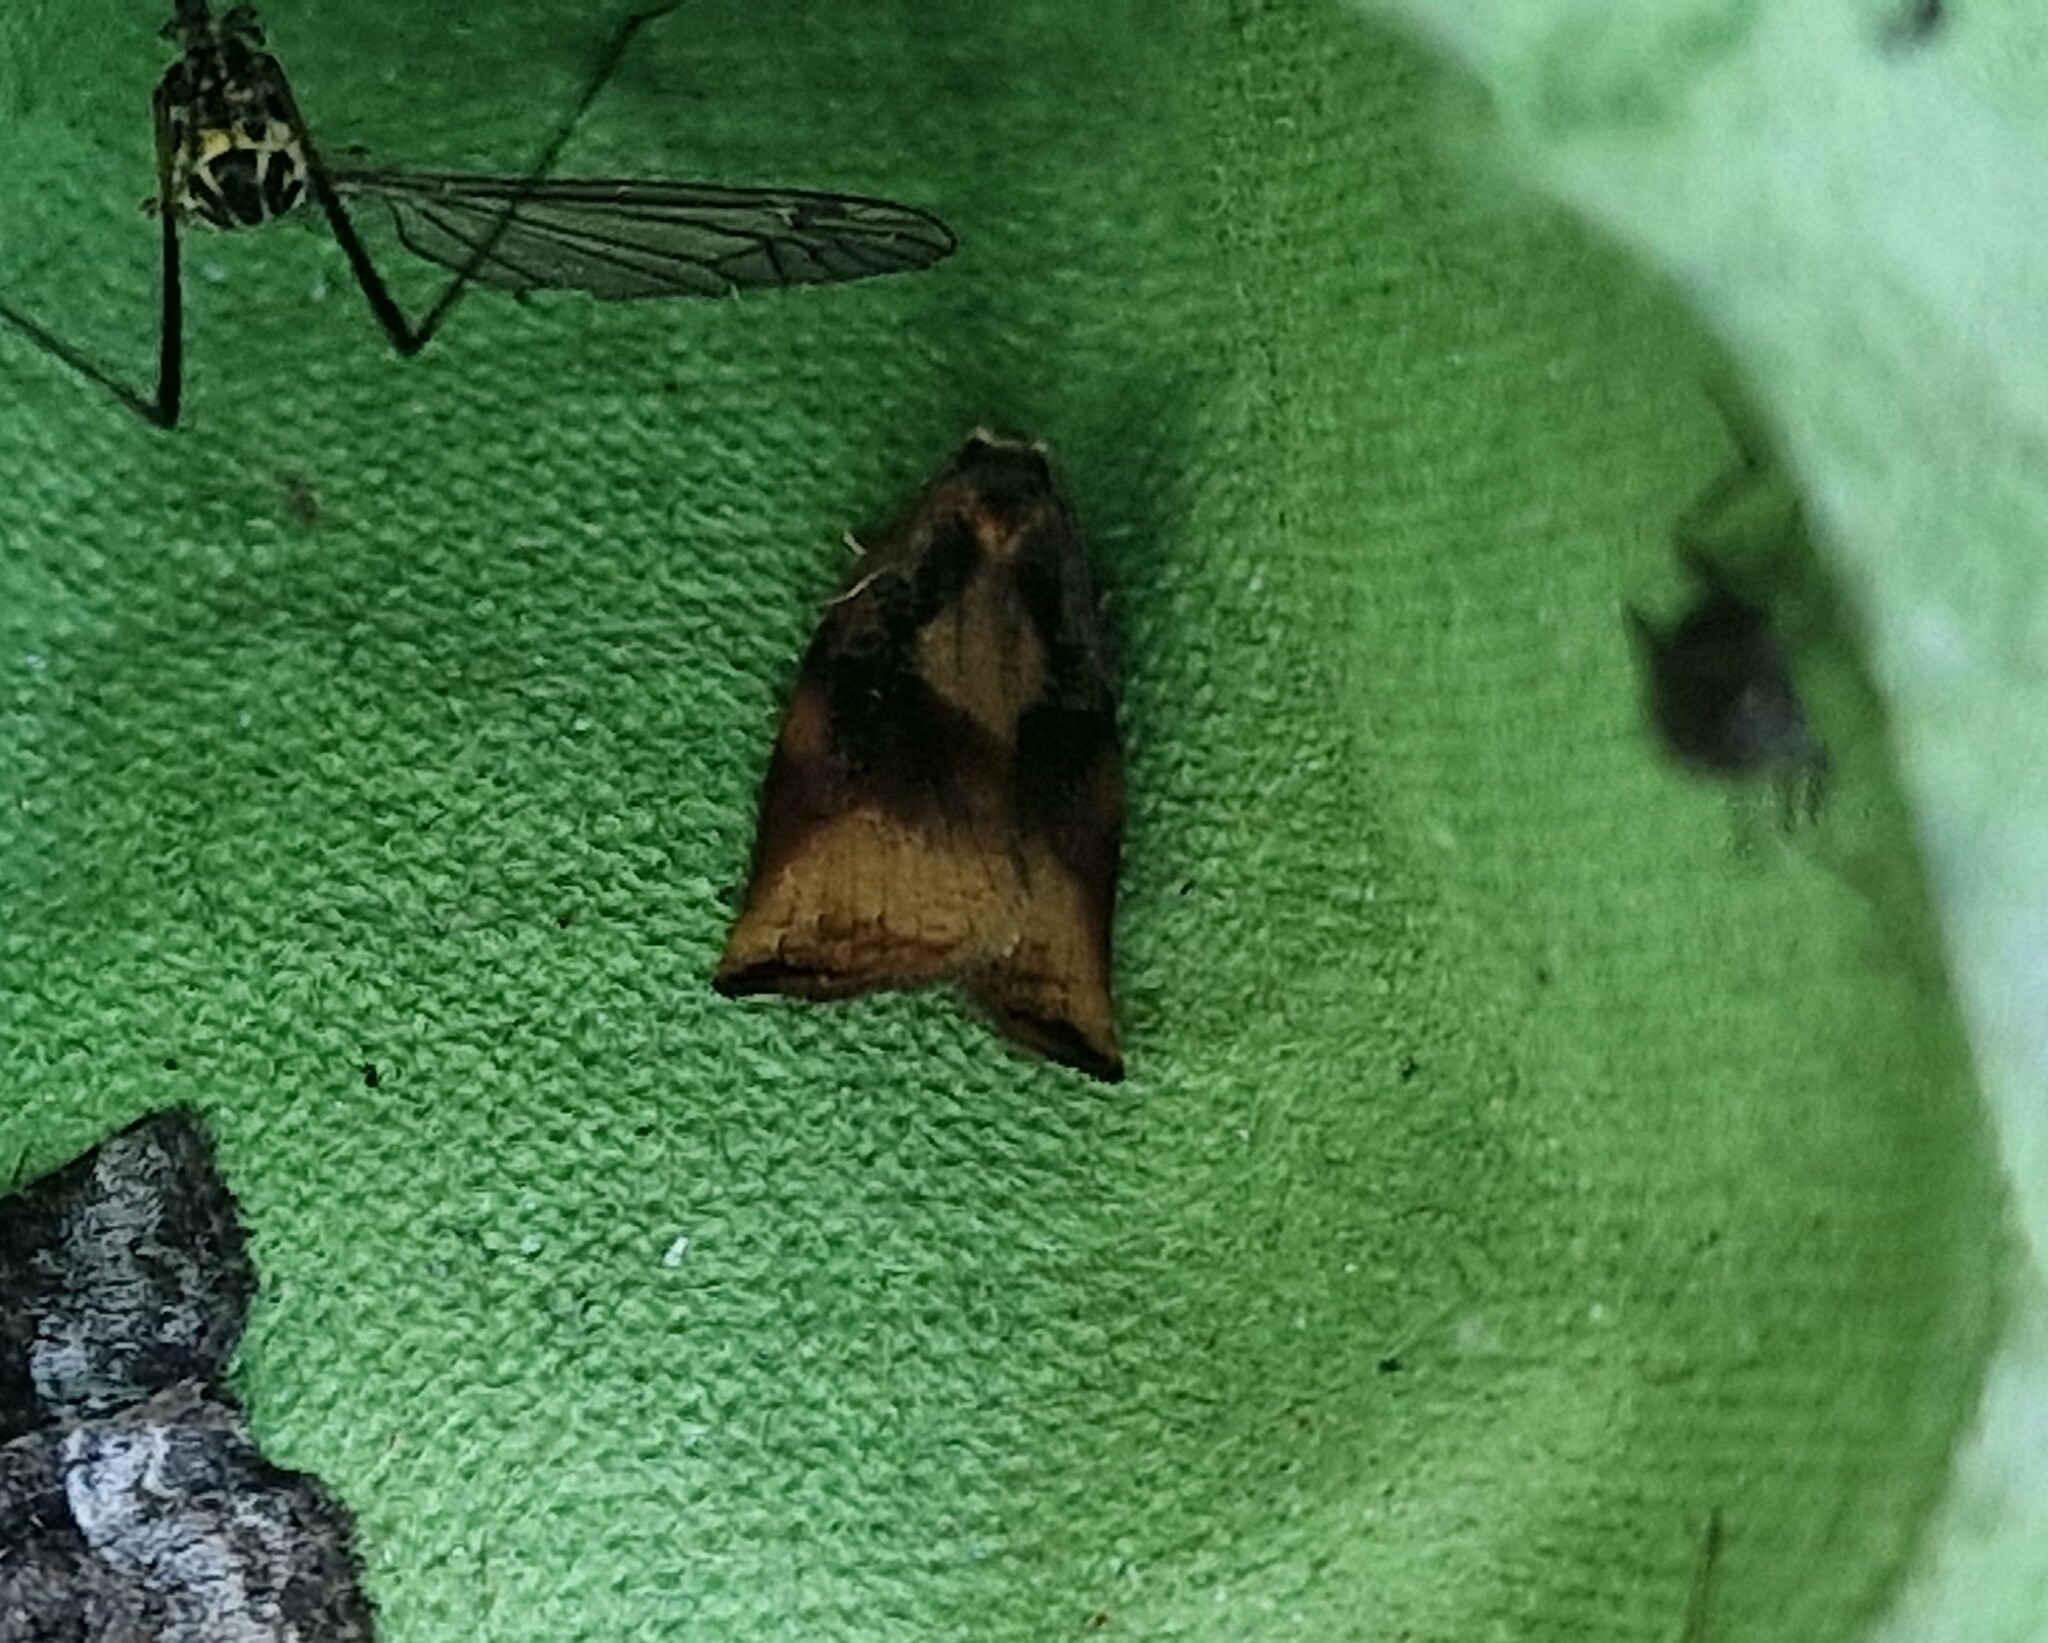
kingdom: Animalia
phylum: Arthropoda
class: Insecta
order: Lepidoptera
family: Tortricidae
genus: Archips
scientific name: Archips podana
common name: Large fruit-tree tortrix
